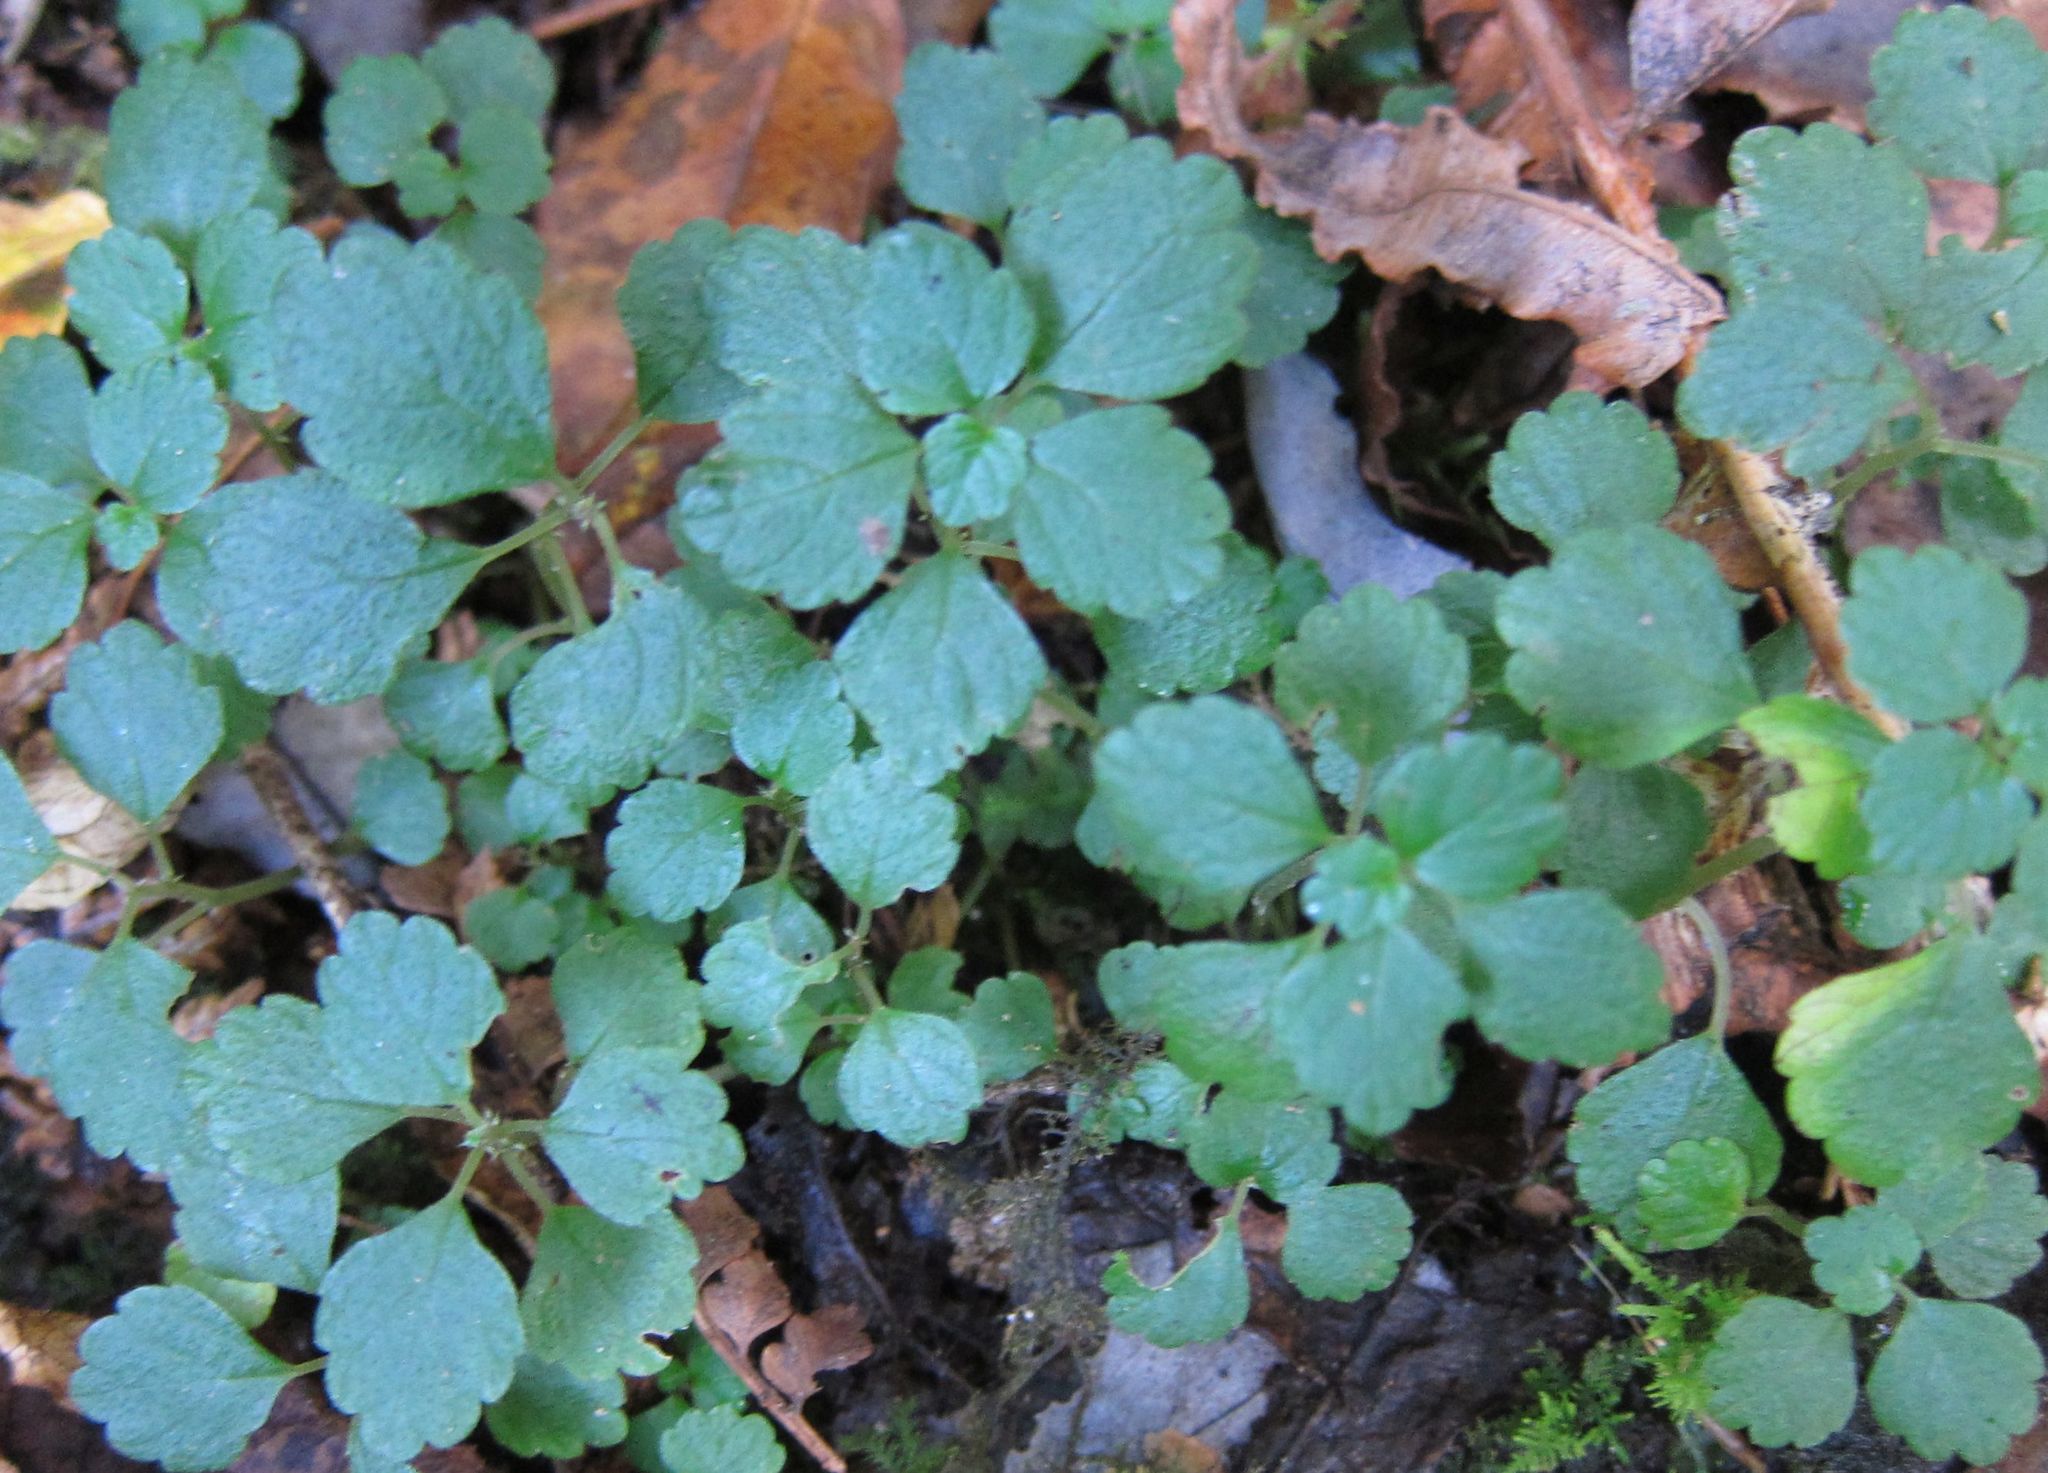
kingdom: Plantae
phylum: Tracheophyta
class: Magnoliopsida
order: Rosales
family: Urticaceae
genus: Australina
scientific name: Australina pusilla
